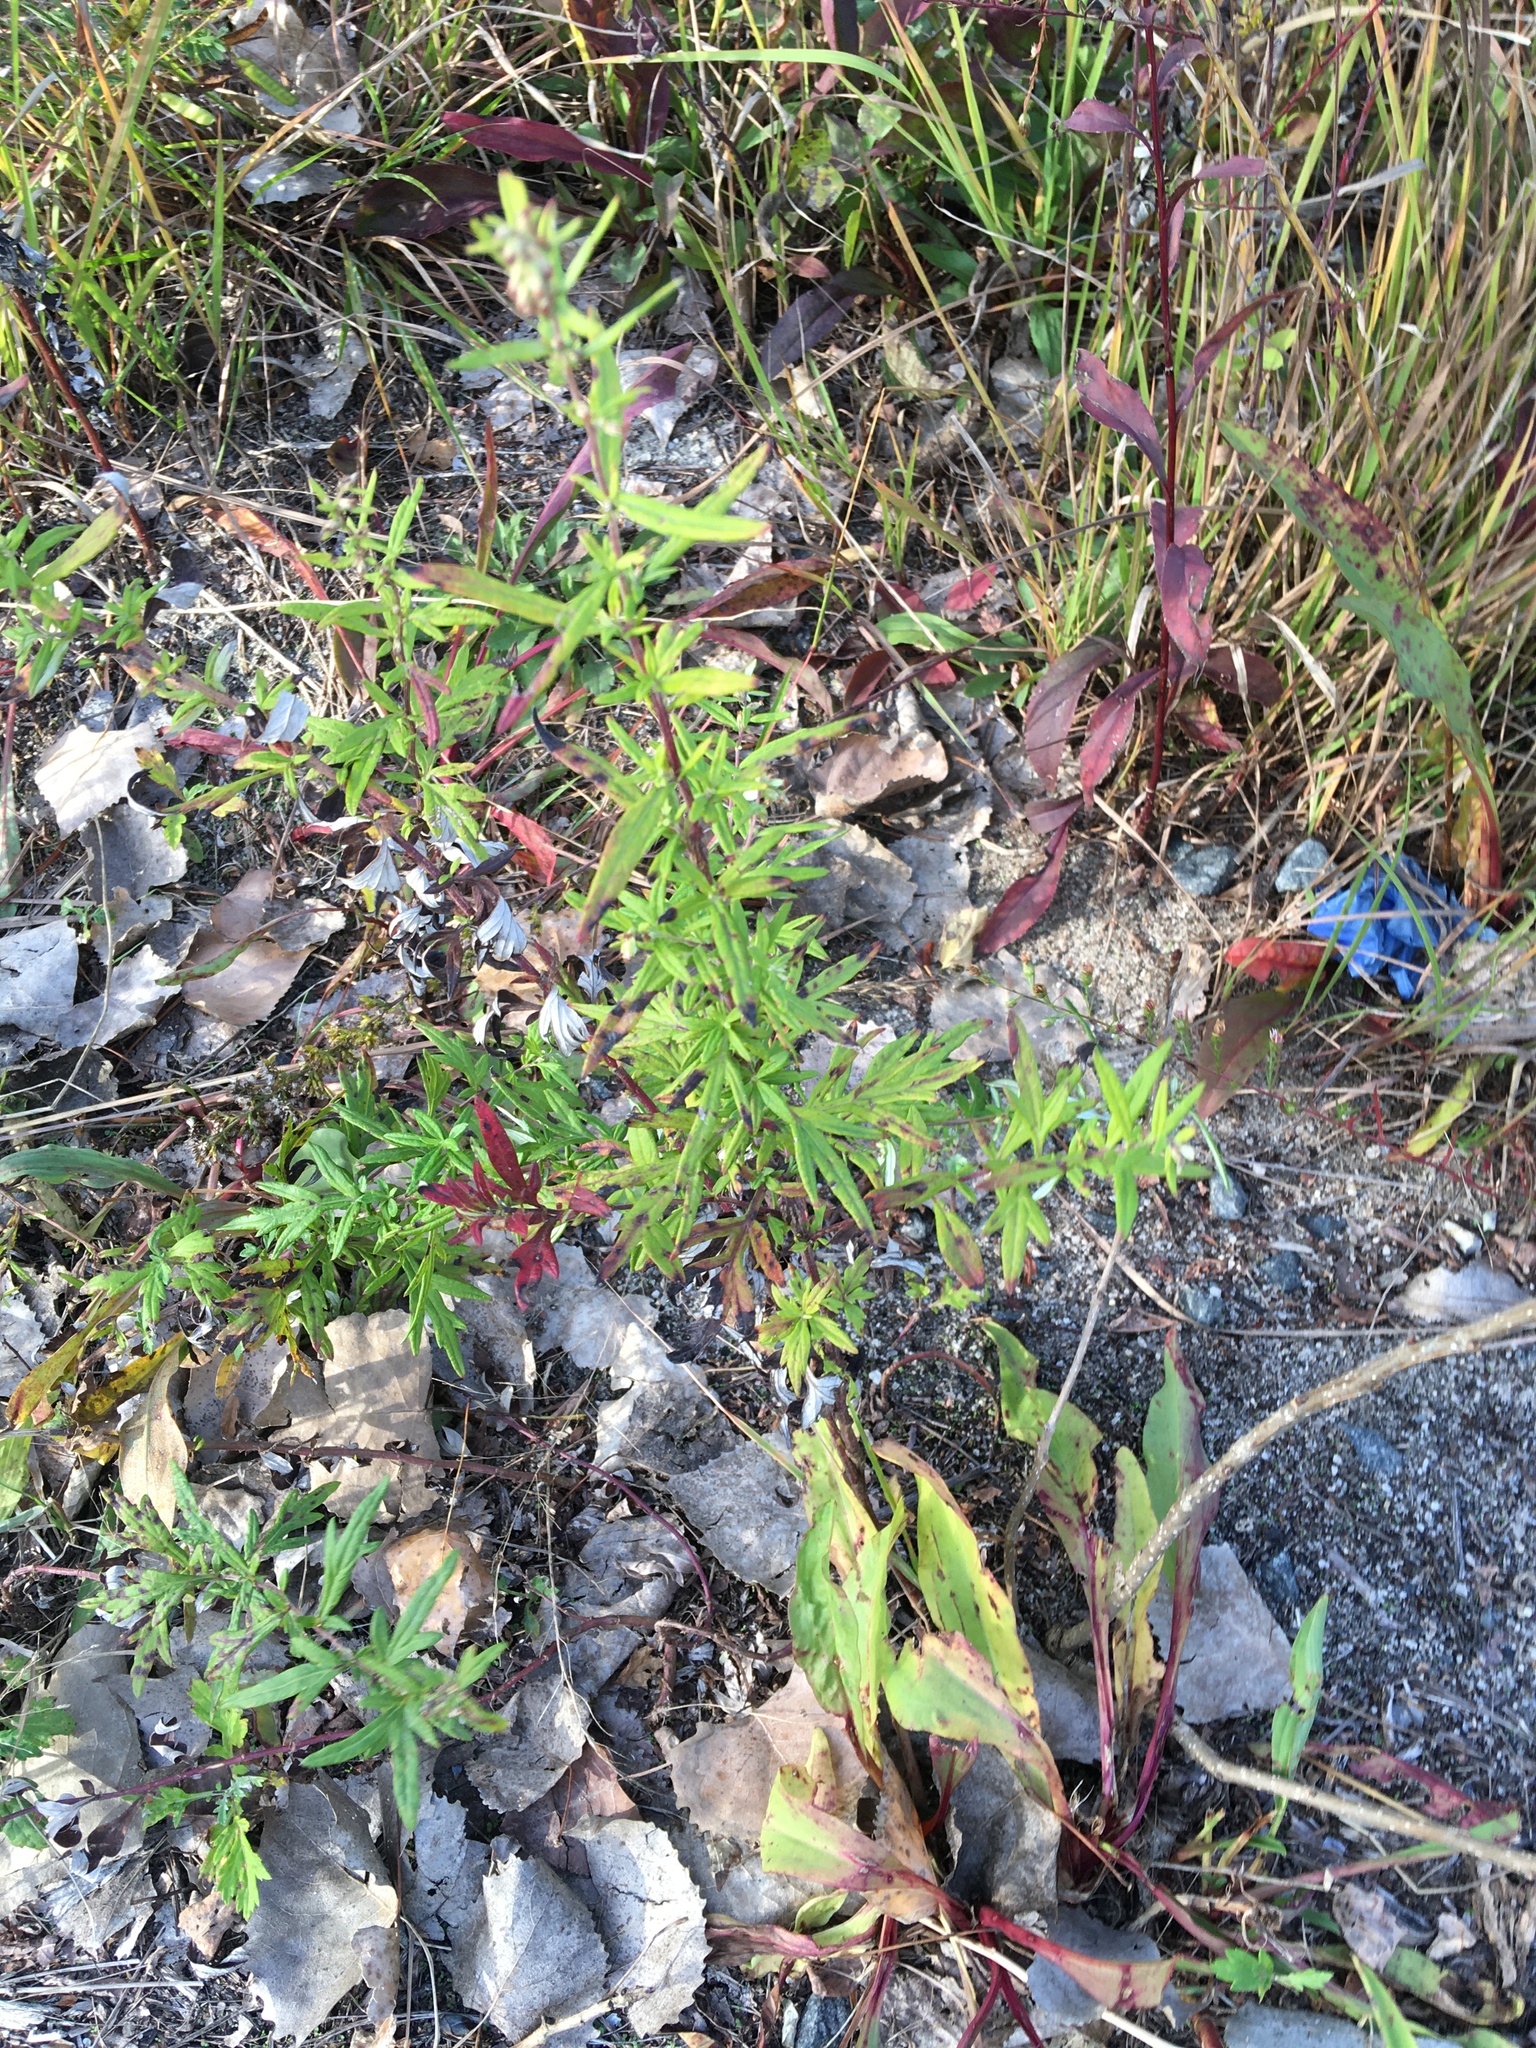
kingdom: Plantae
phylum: Tracheophyta
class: Magnoliopsida
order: Asterales
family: Asteraceae
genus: Artemisia
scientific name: Artemisia vulgaris
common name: Mugwort
